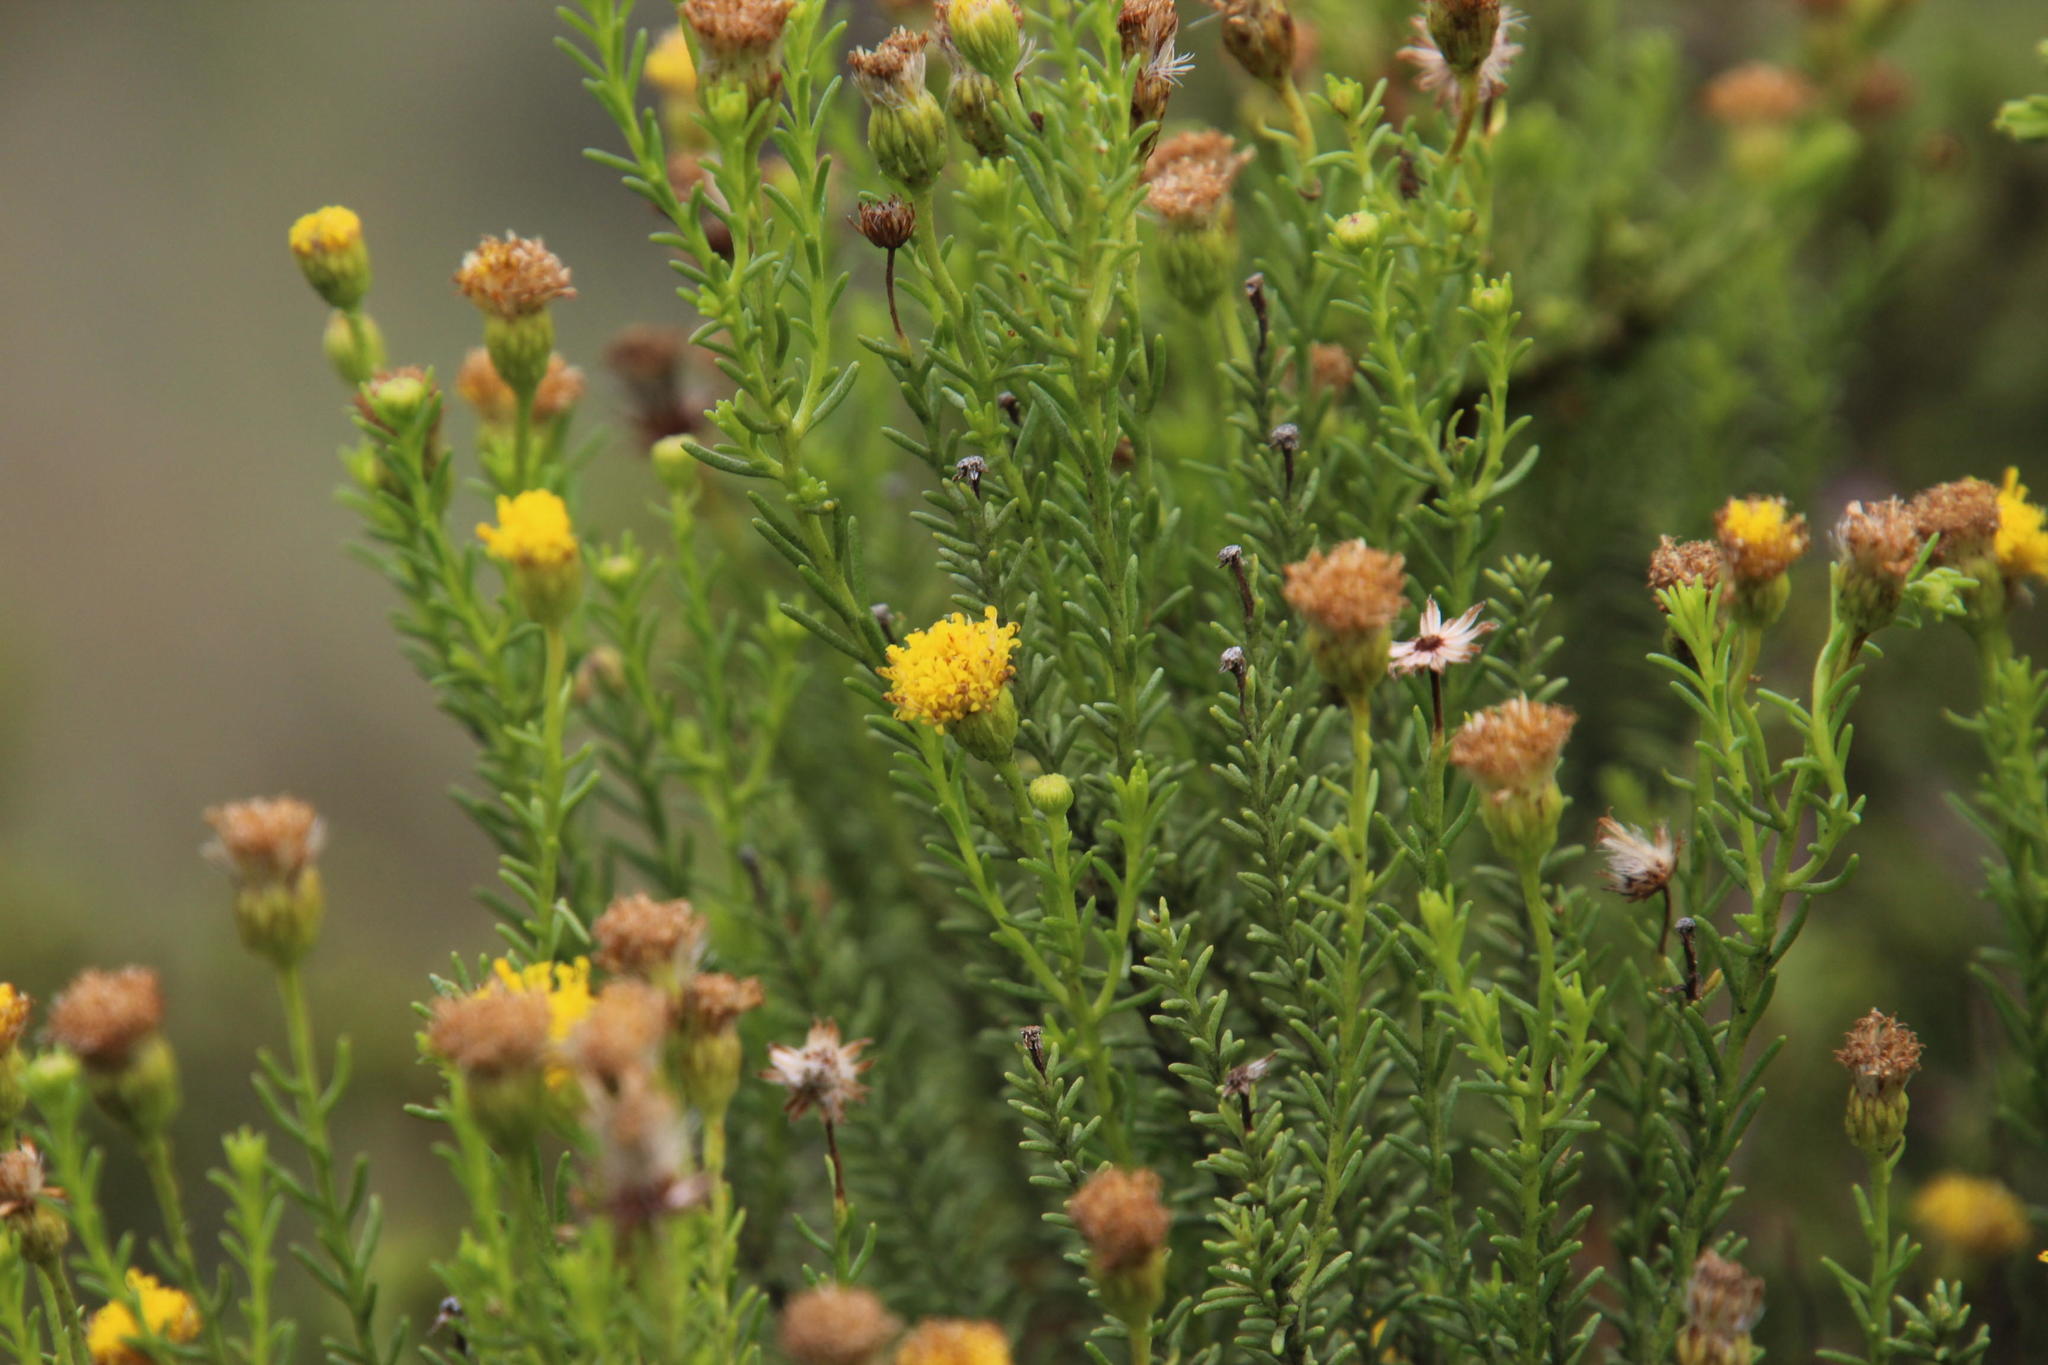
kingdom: Plantae
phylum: Tracheophyta
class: Magnoliopsida
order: Asterales
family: Asteraceae
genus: Chrysocoma
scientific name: Chrysocoma ciliata
